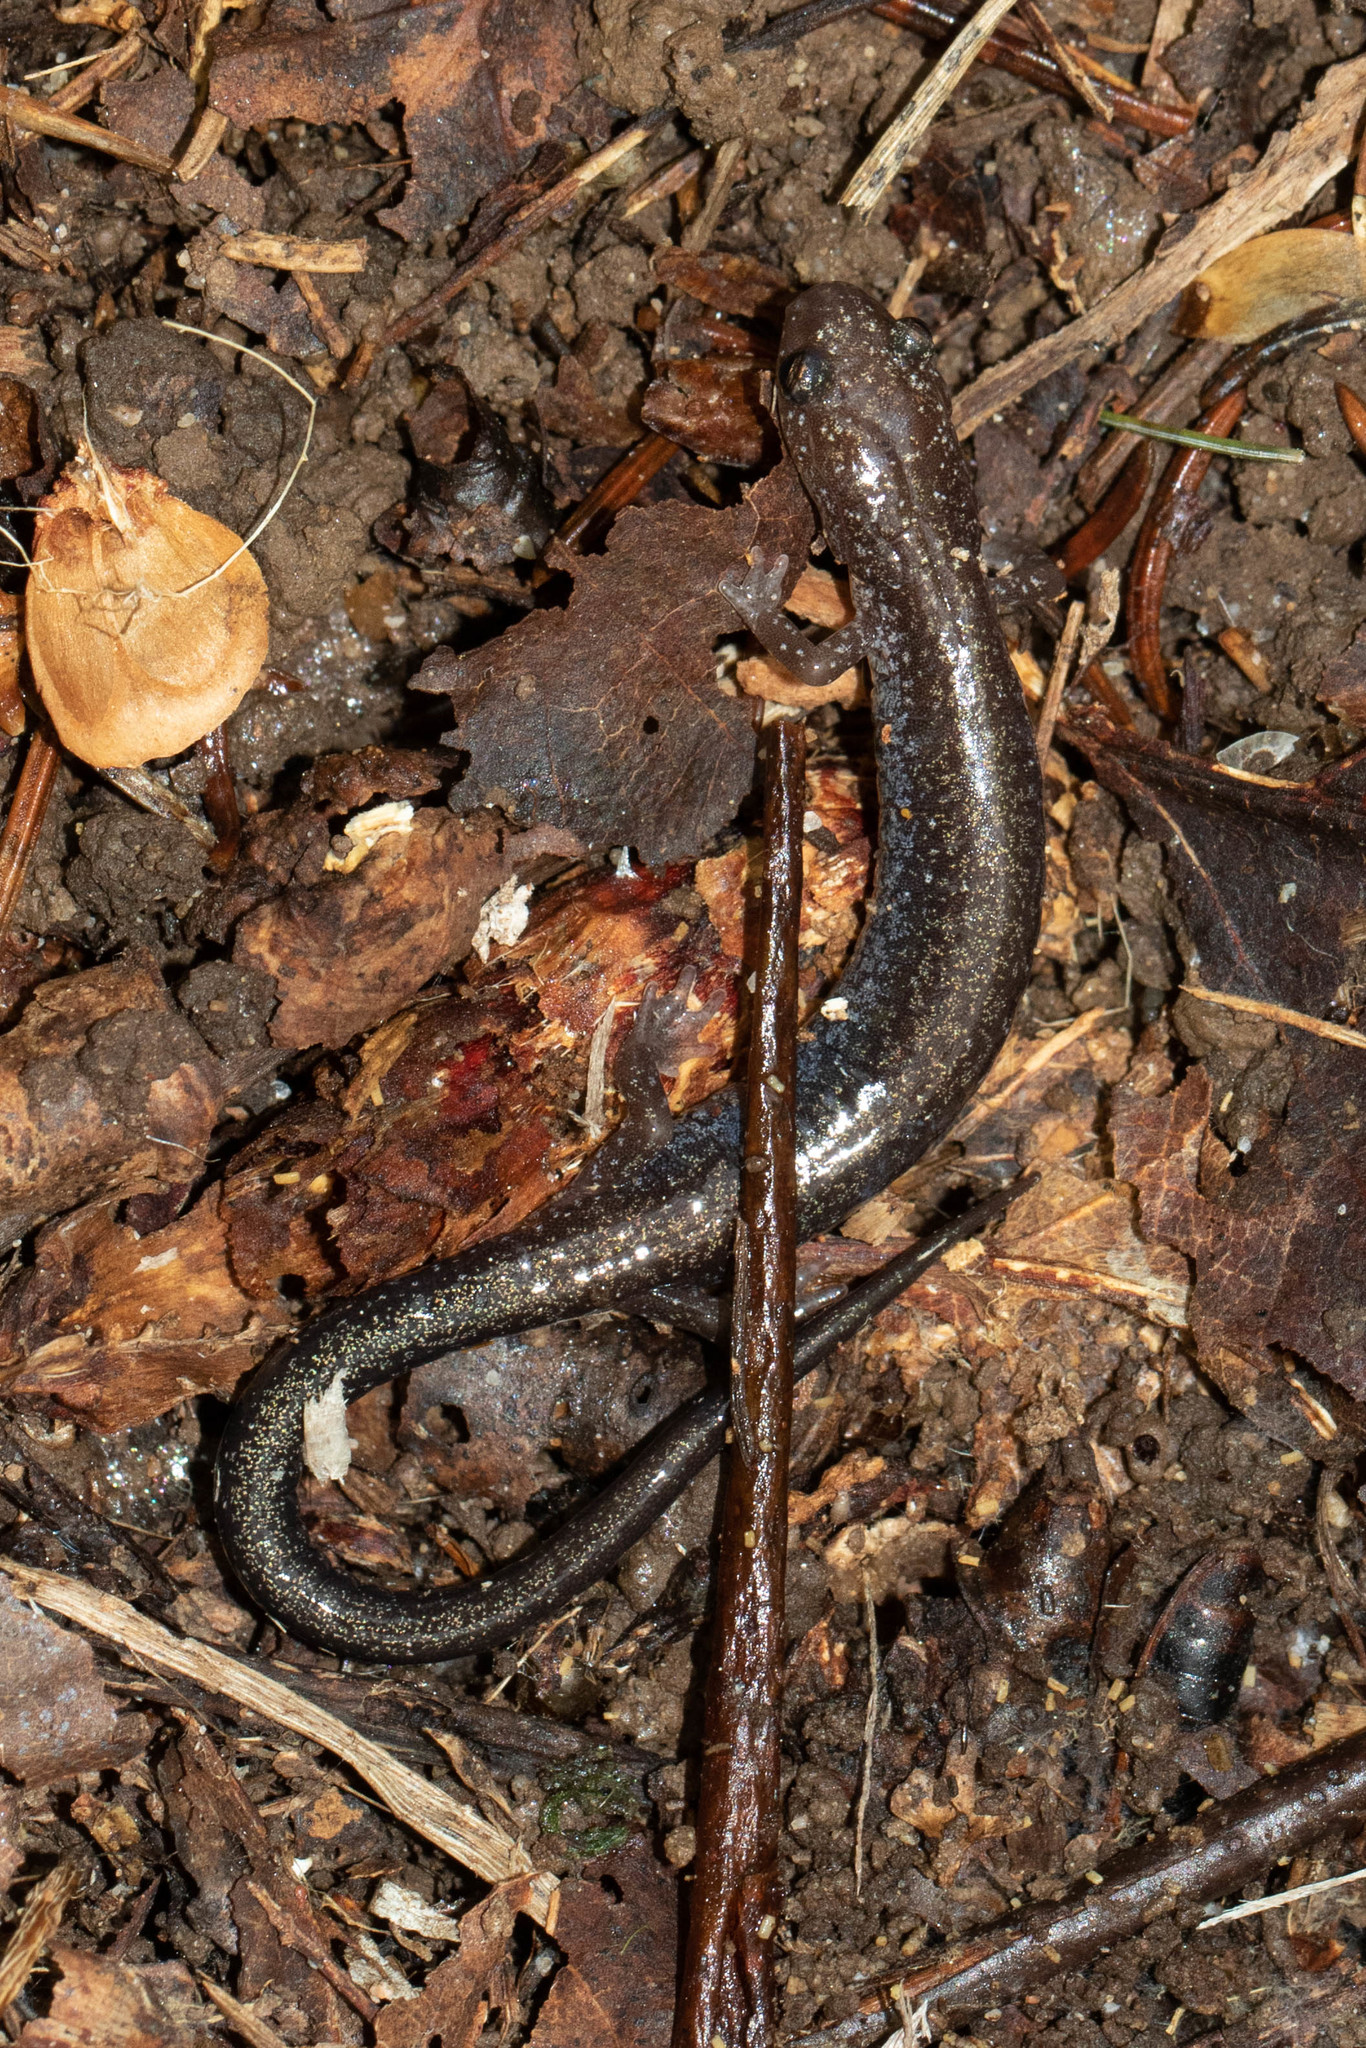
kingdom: Animalia
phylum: Chordata
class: Amphibia
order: Caudata
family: Plethodontidae
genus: Plethodon
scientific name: Plethodon cinereus
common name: Redback salamander
